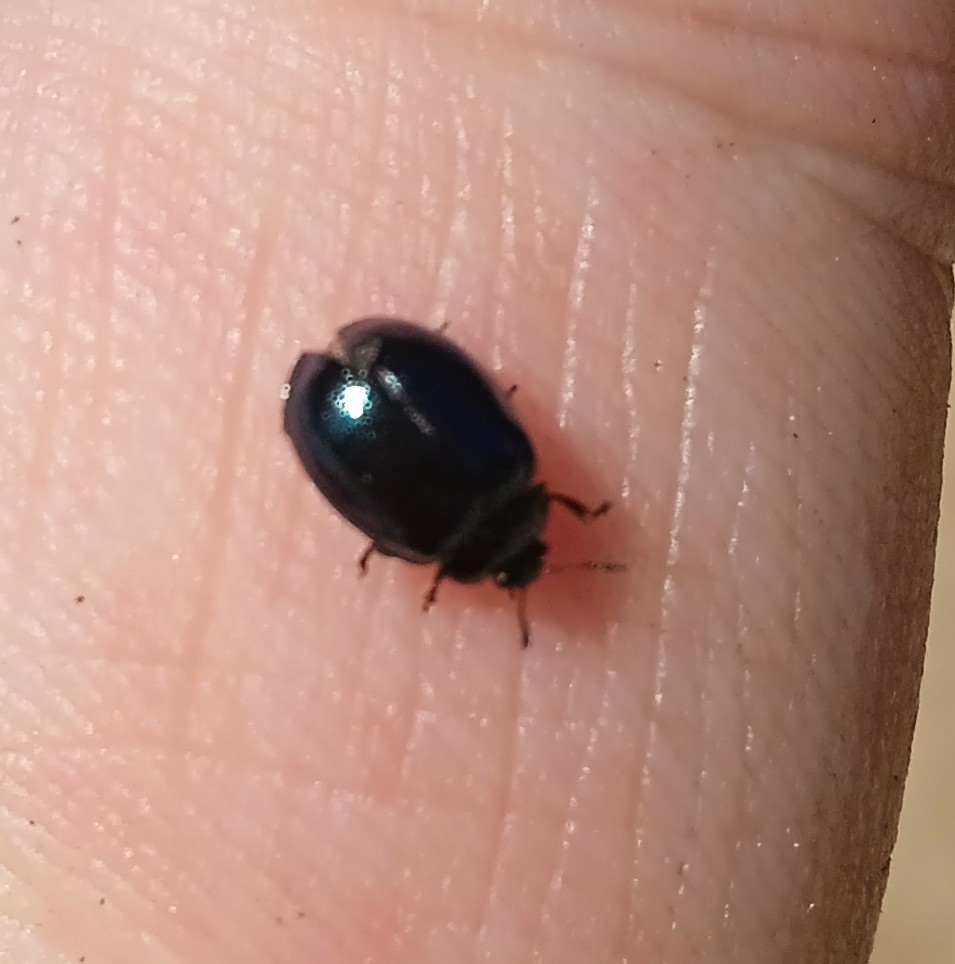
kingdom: Animalia
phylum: Arthropoda
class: Insecta
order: Coleoptera
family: Chrysomelidae
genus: Plagiodera
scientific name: Plagiodera versicolora
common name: Imported willow leaf beetle
